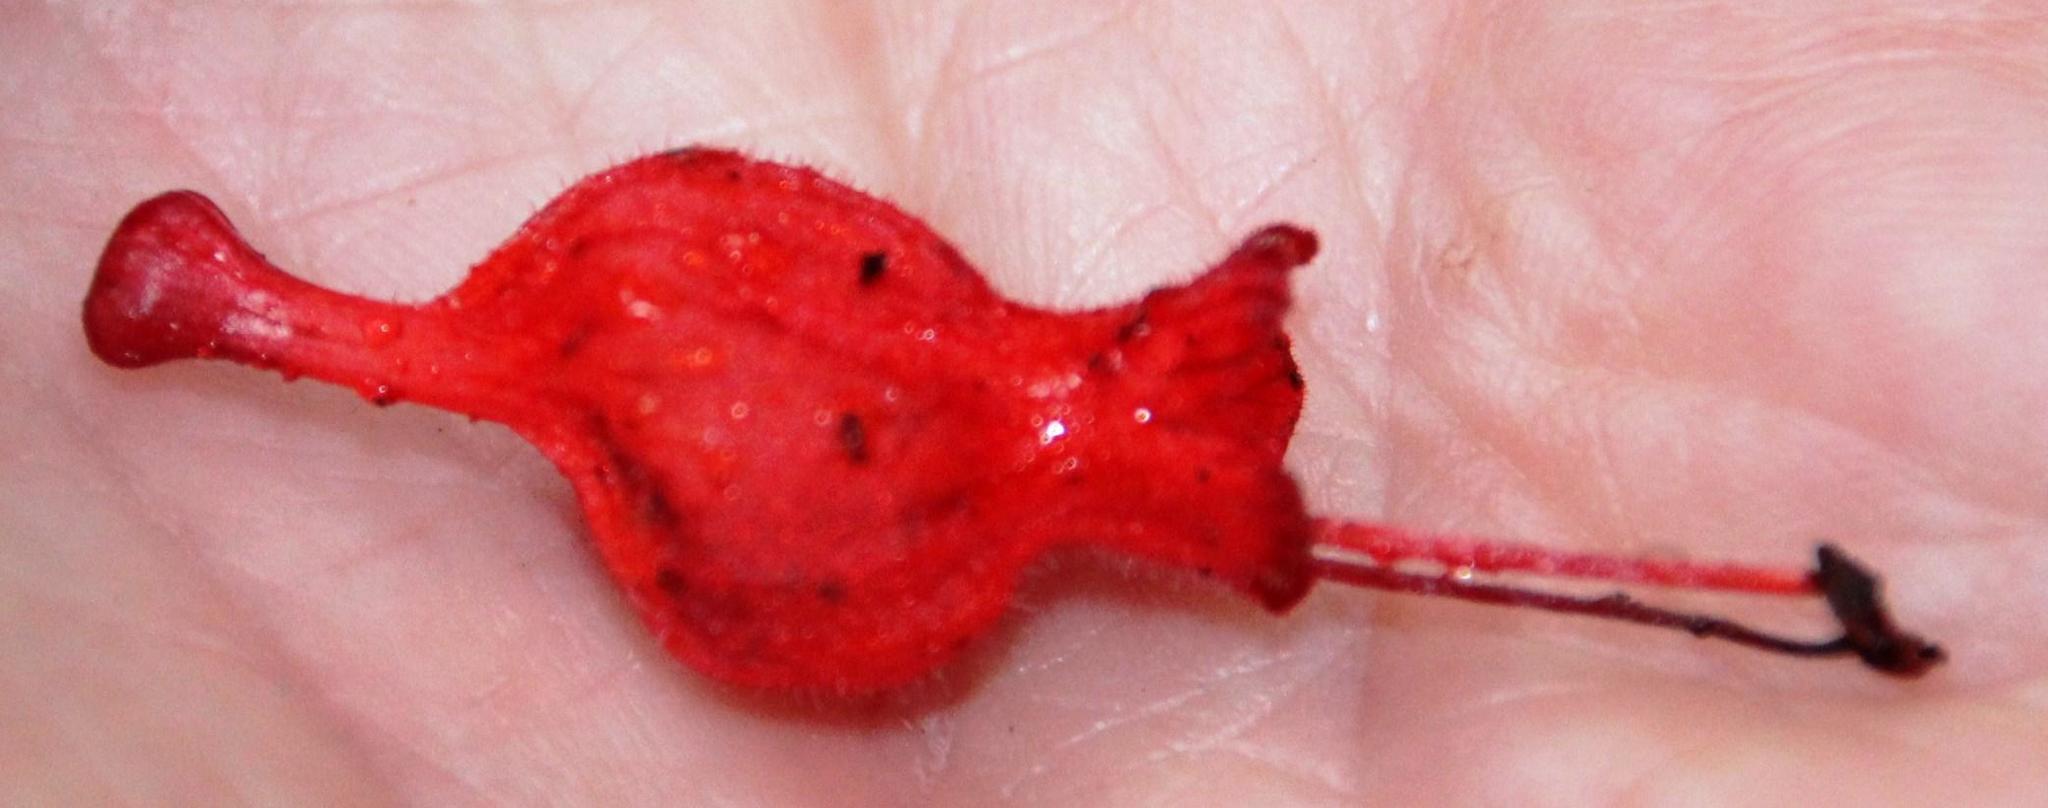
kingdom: Plantae
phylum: Tracheophyta
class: Magnoliopsida
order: Lamiales
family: Gesneriaceae
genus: Sarmienta
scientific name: Sarmienta scandens
